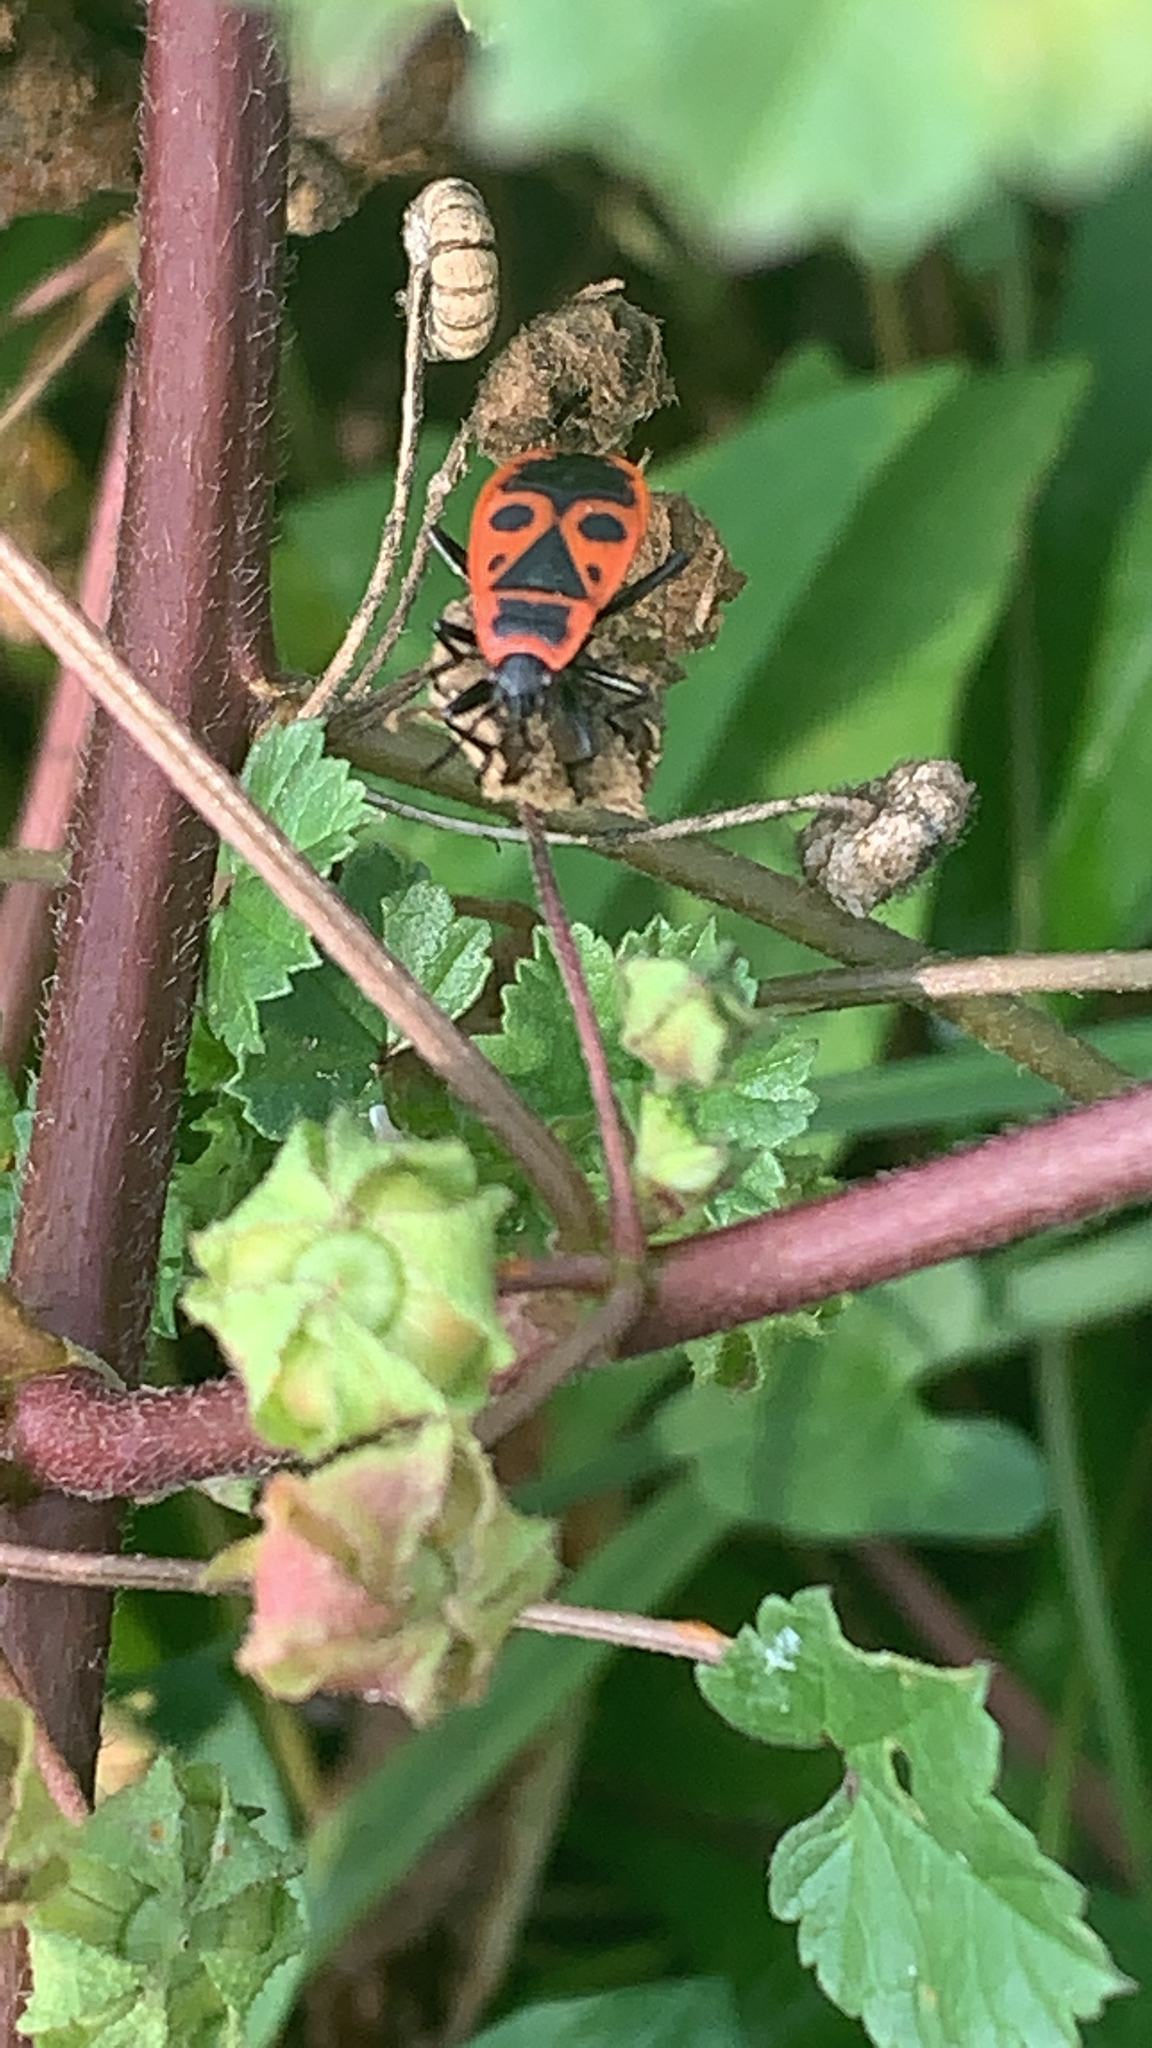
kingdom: Animalia
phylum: Arthropoda
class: Insecta
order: Hemiptera
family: Pyrrhocoridae
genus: Pyrrhocoris
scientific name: Pyrrhocoris apterus
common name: Firebug
